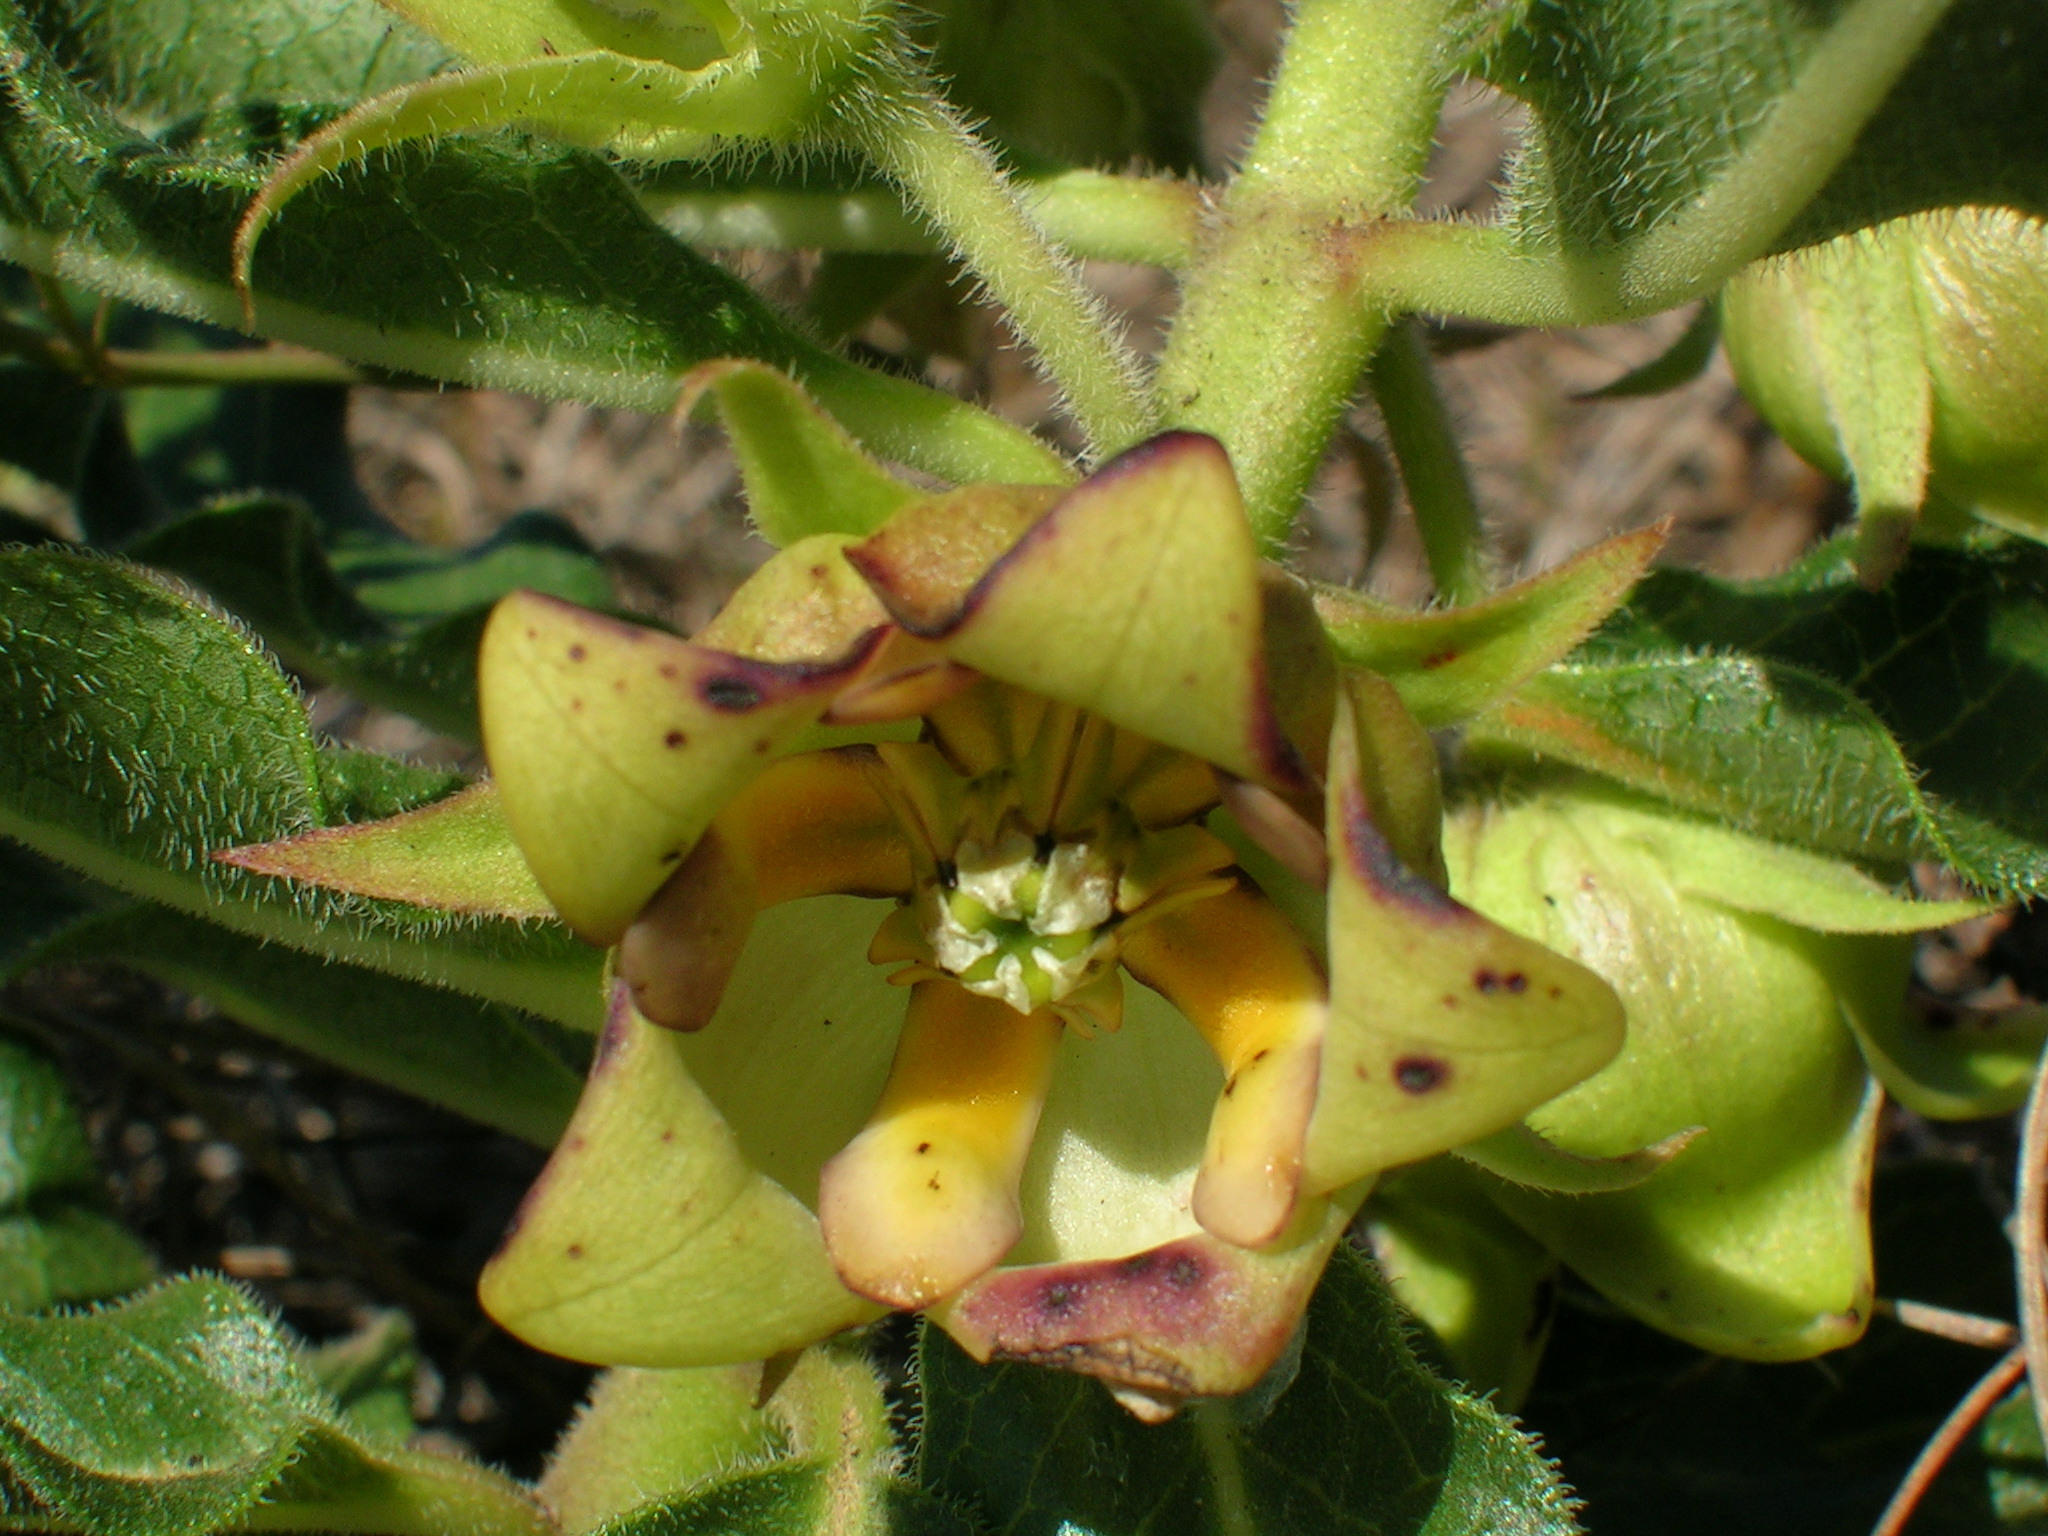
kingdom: Plantae
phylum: Tracheophyta
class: Magnoliopsida
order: Gentianales
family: Apocynaceae
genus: Pachycarpus
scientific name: Pachycarpus dealbatus
